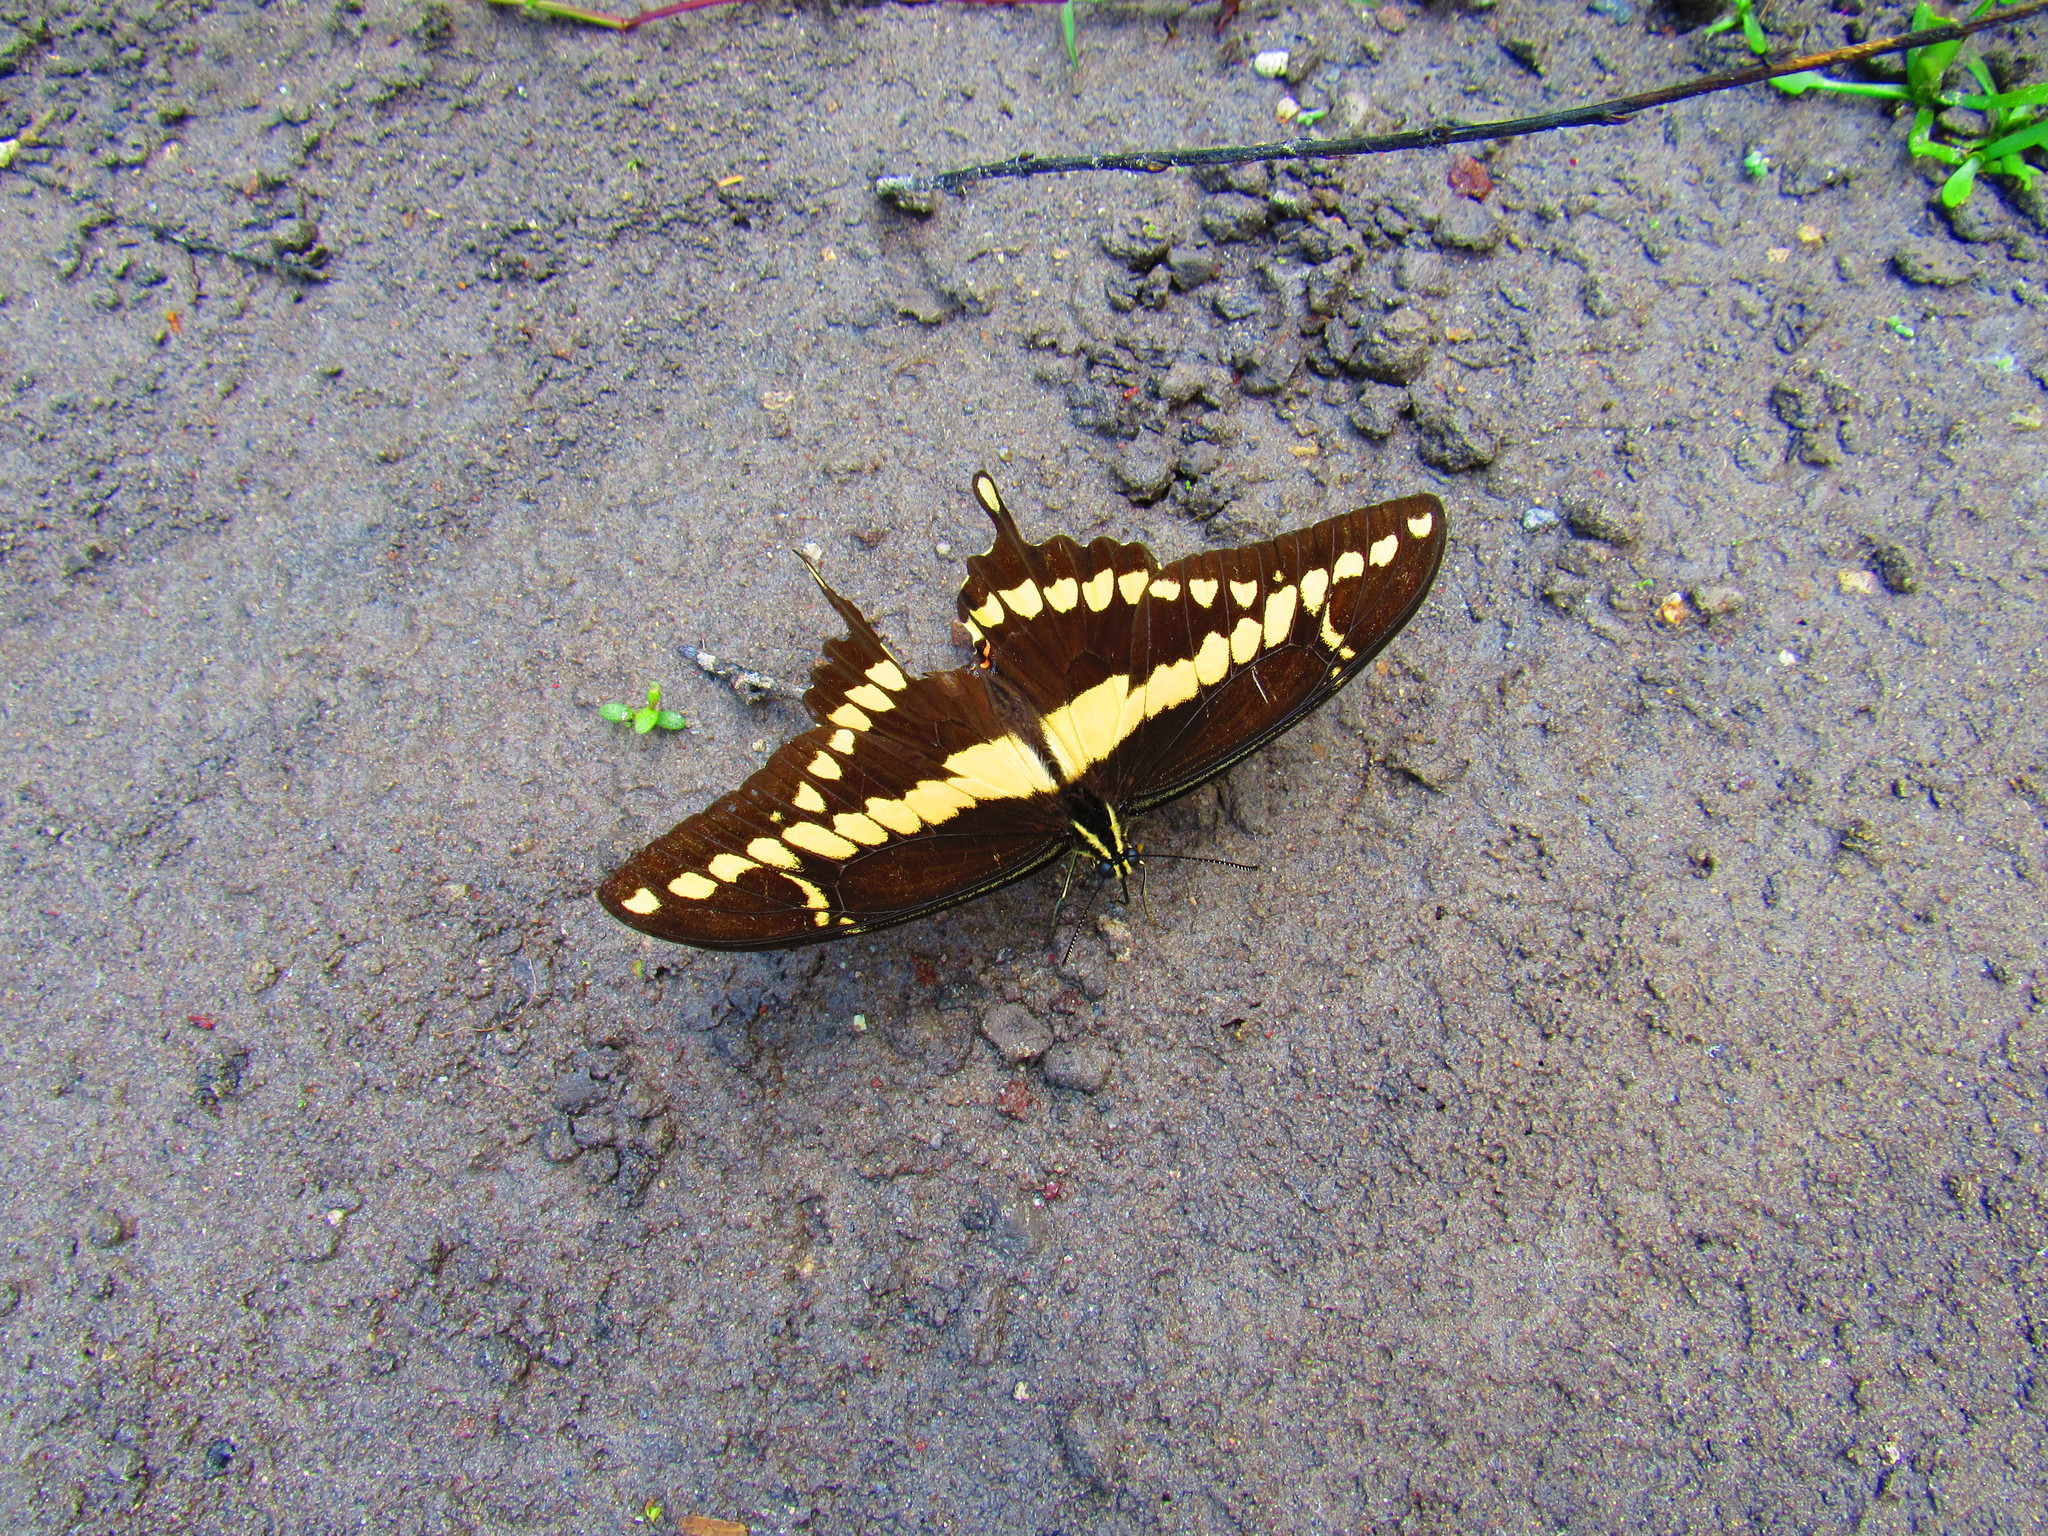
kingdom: Animalia
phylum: Arthropoda
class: Insecta
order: Lepidoptera
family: Papilionidae
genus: Papilio
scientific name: Papilio rumiko
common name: Western giant swallowtail
